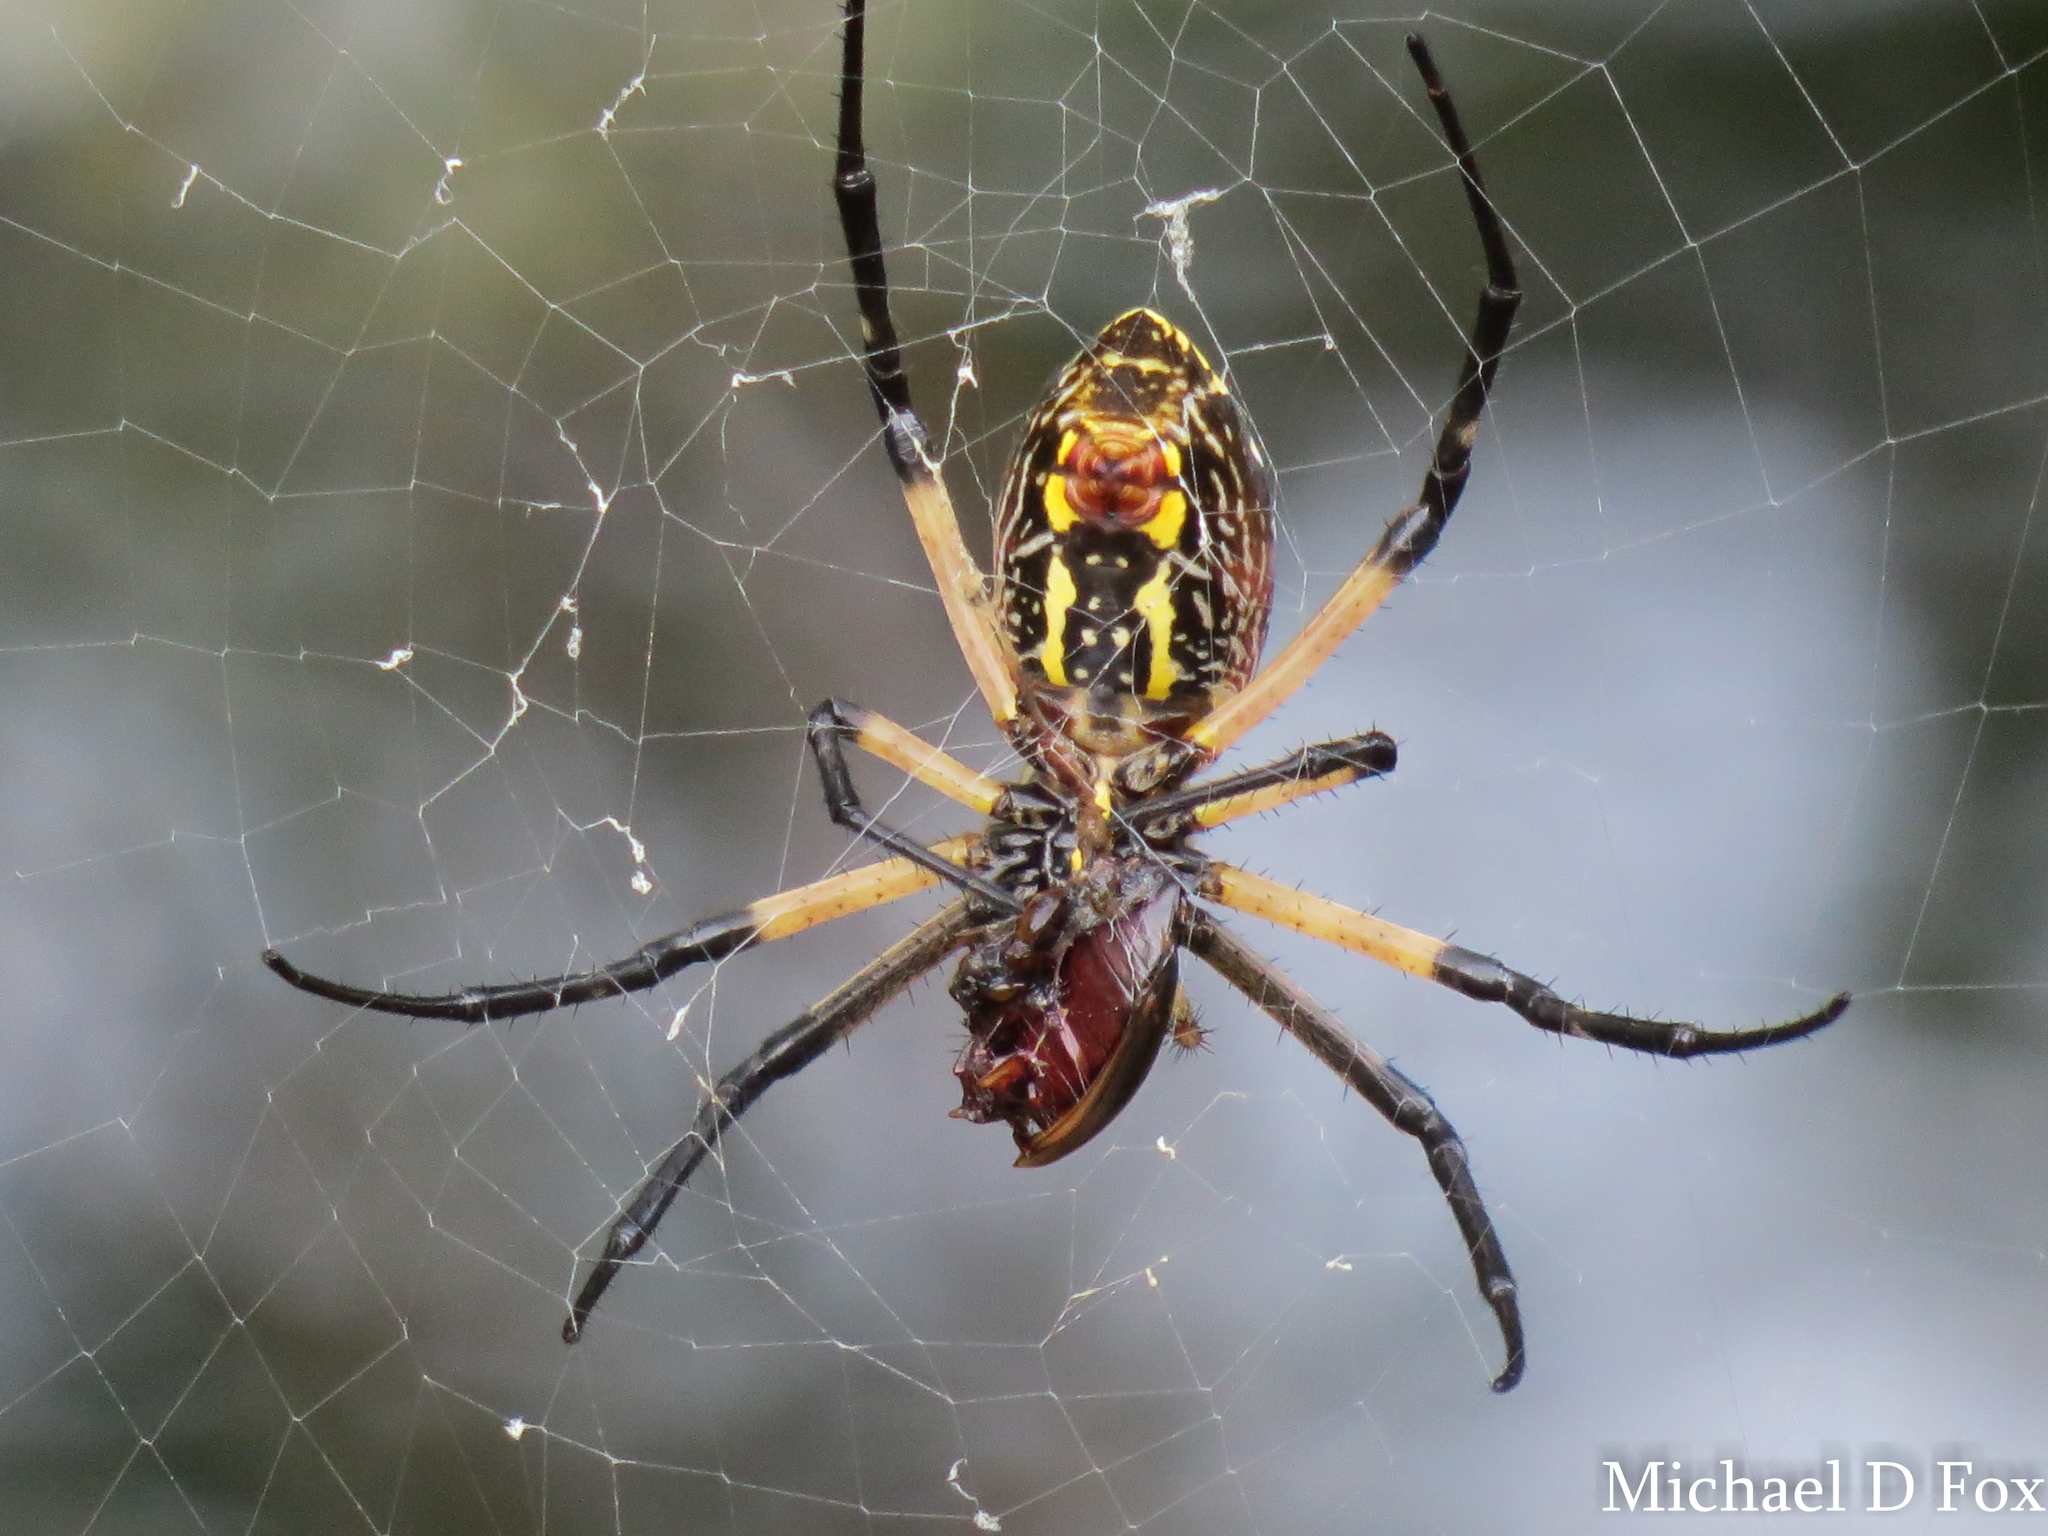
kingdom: Animalia
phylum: Arthropoda
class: Arachnida
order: Araneae
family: Araneidae
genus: Argiope
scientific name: Argiope aurantia
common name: Orb weavers
